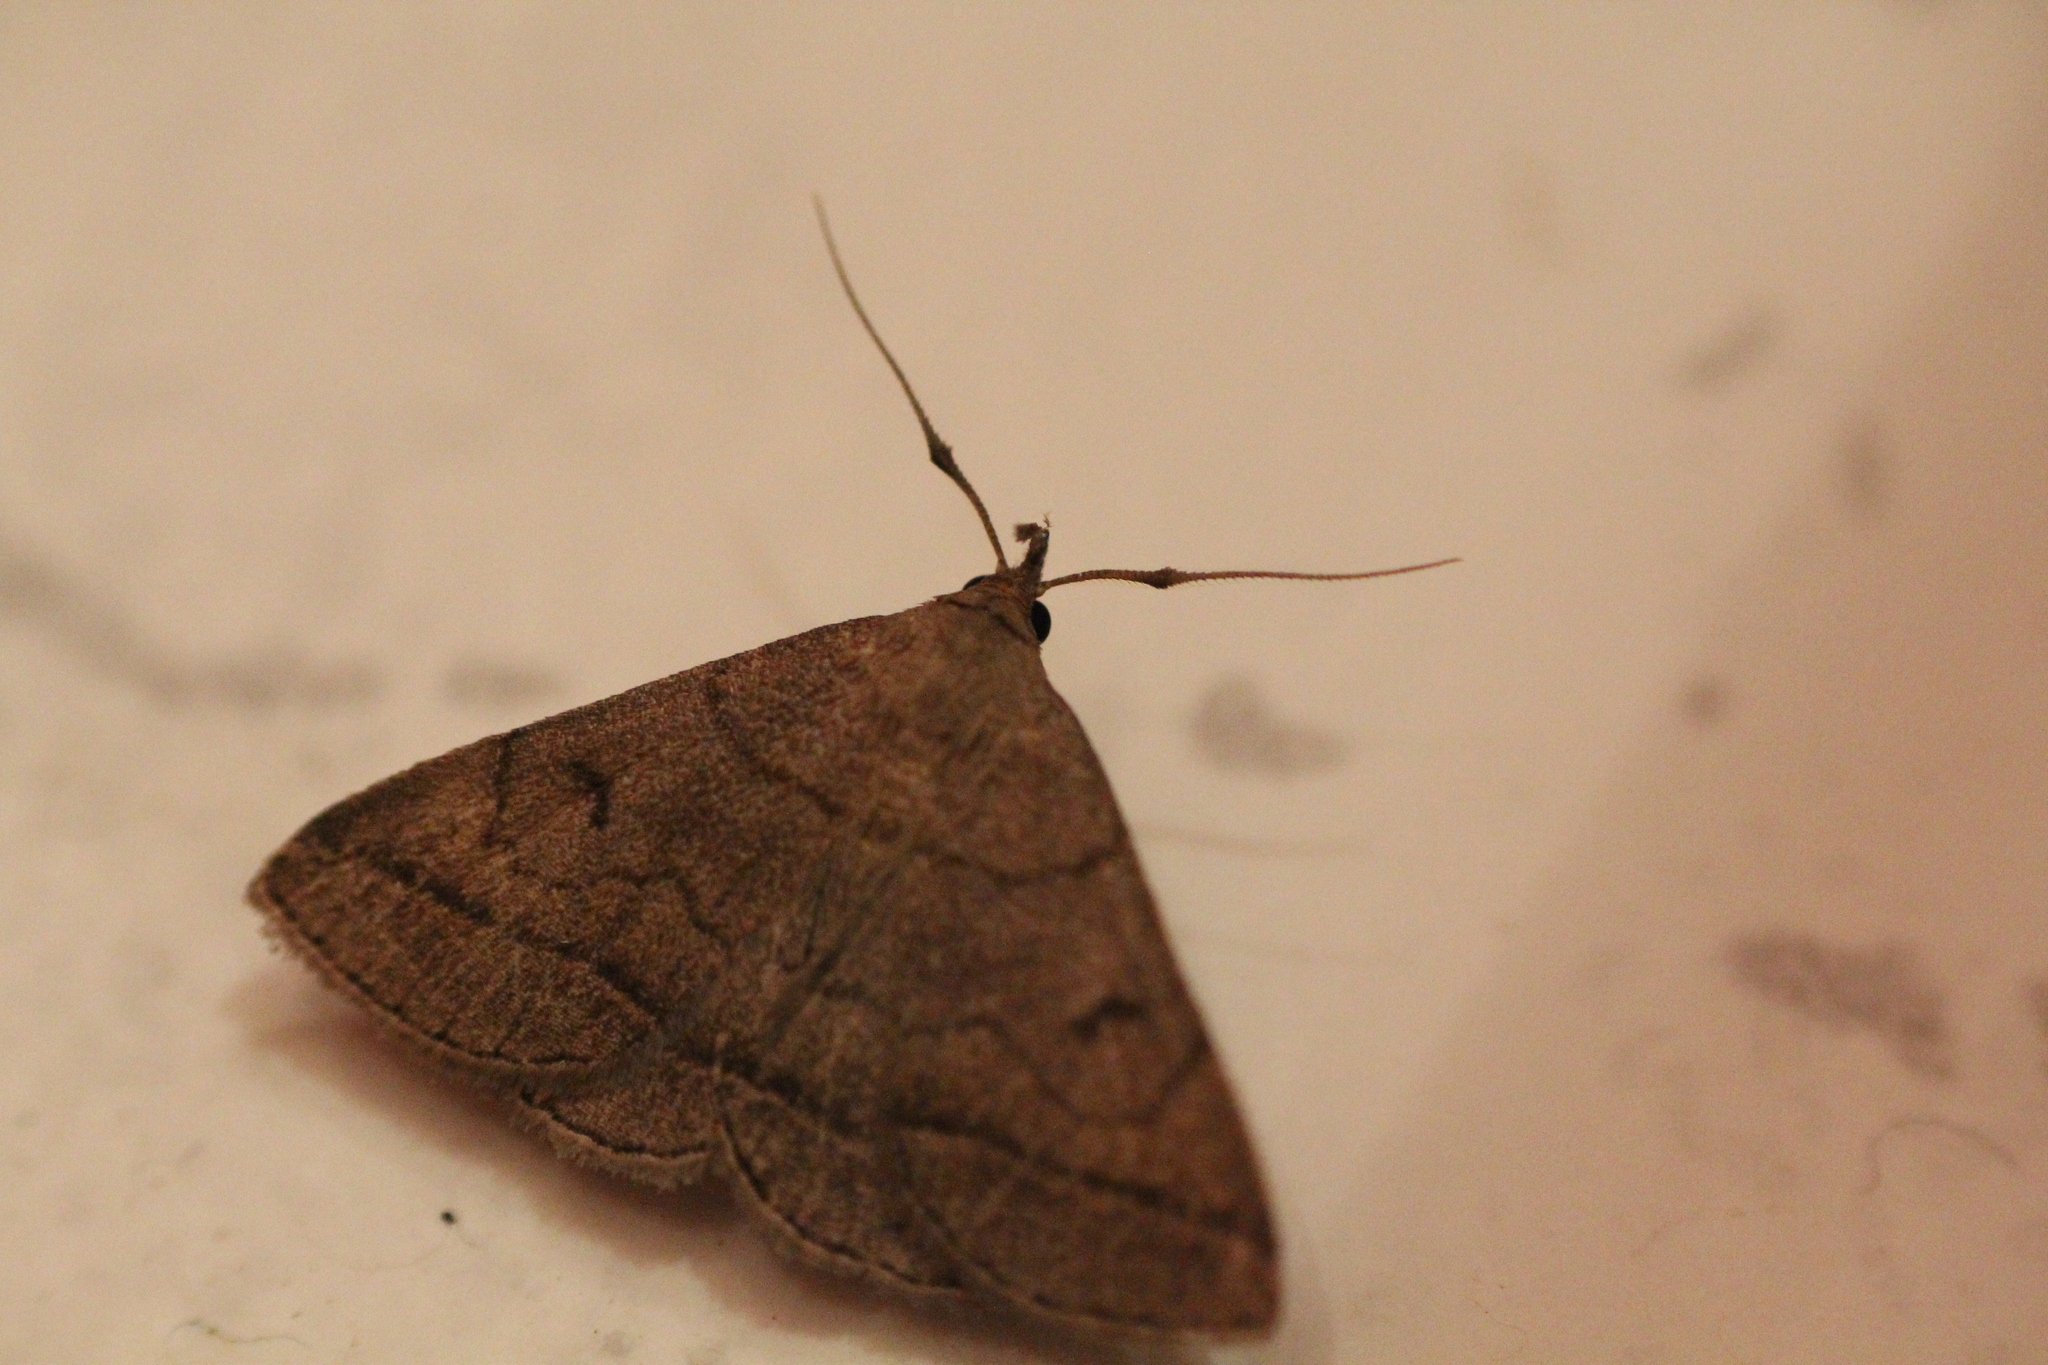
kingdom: Animalia
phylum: Arthropoda
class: Insecta
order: Lepidoptera
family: Erebidae
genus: Zanclognatha
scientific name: Zanclognatha lunalis
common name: Jubilee fan-foot
